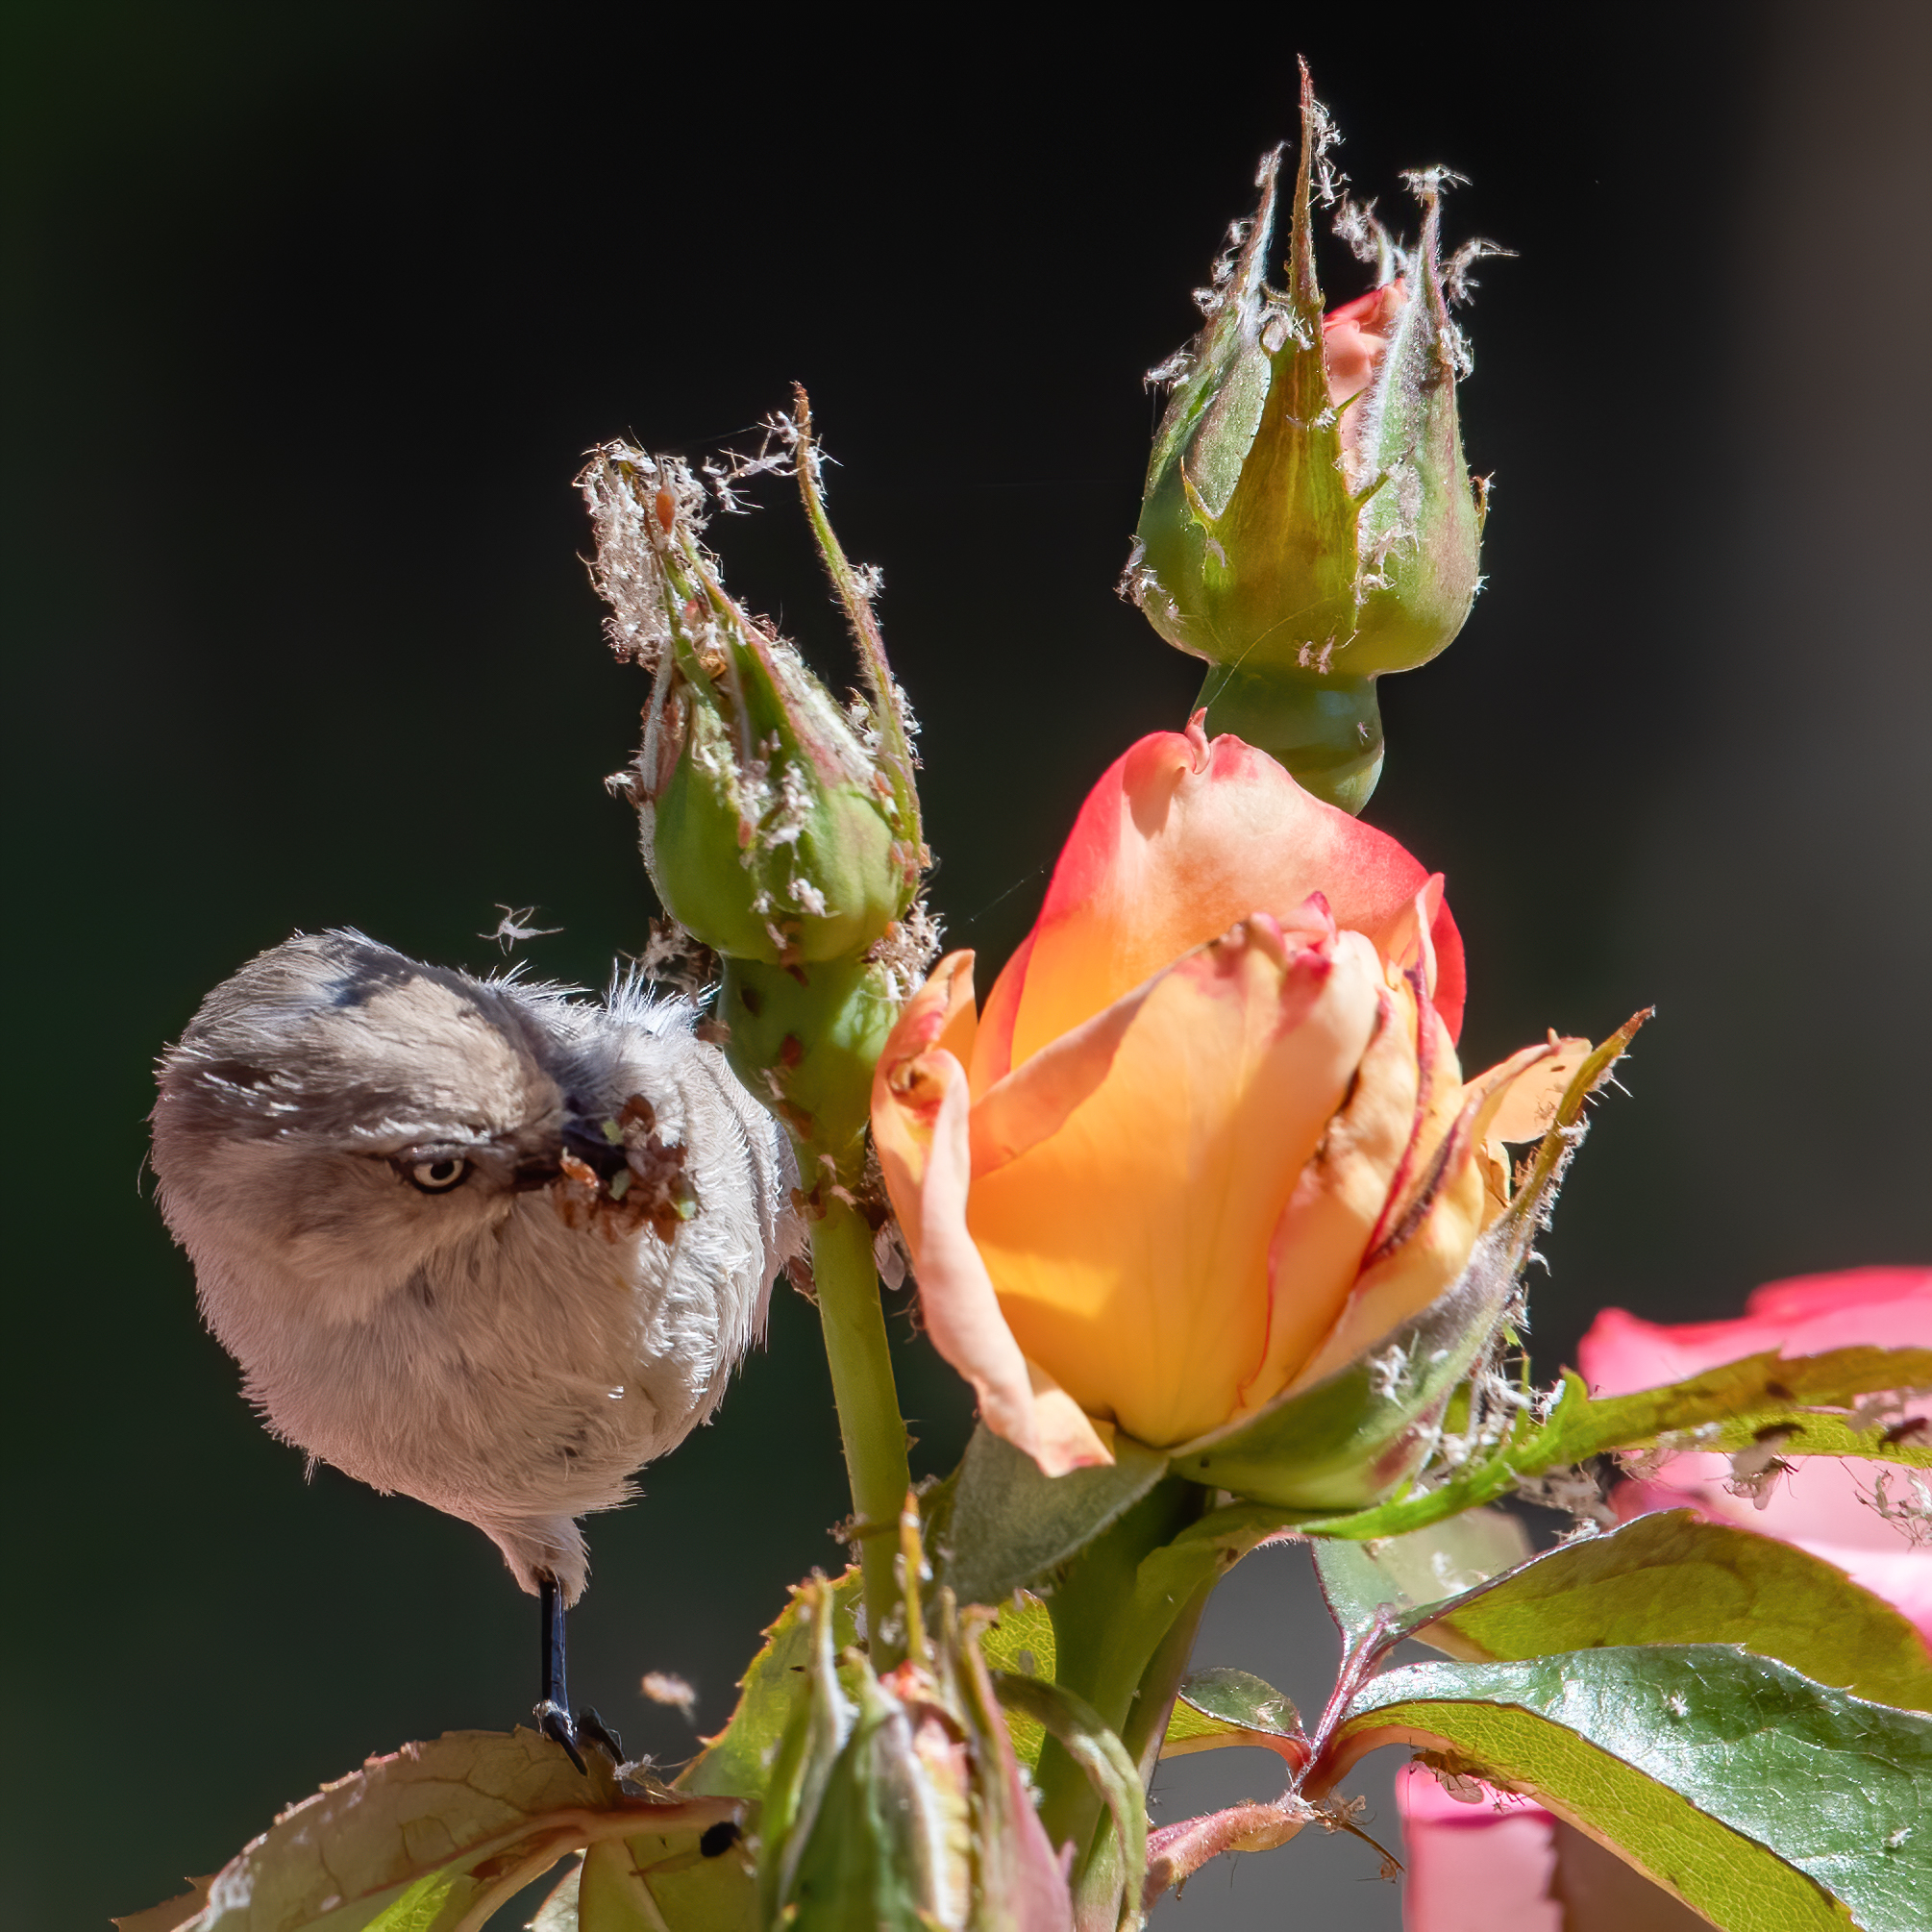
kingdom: Animalia
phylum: Chordata
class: Aves
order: Passeriformes
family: Aegithalidae
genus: Psaltriparus
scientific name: Psaltriparus minimus
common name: American bushtit
